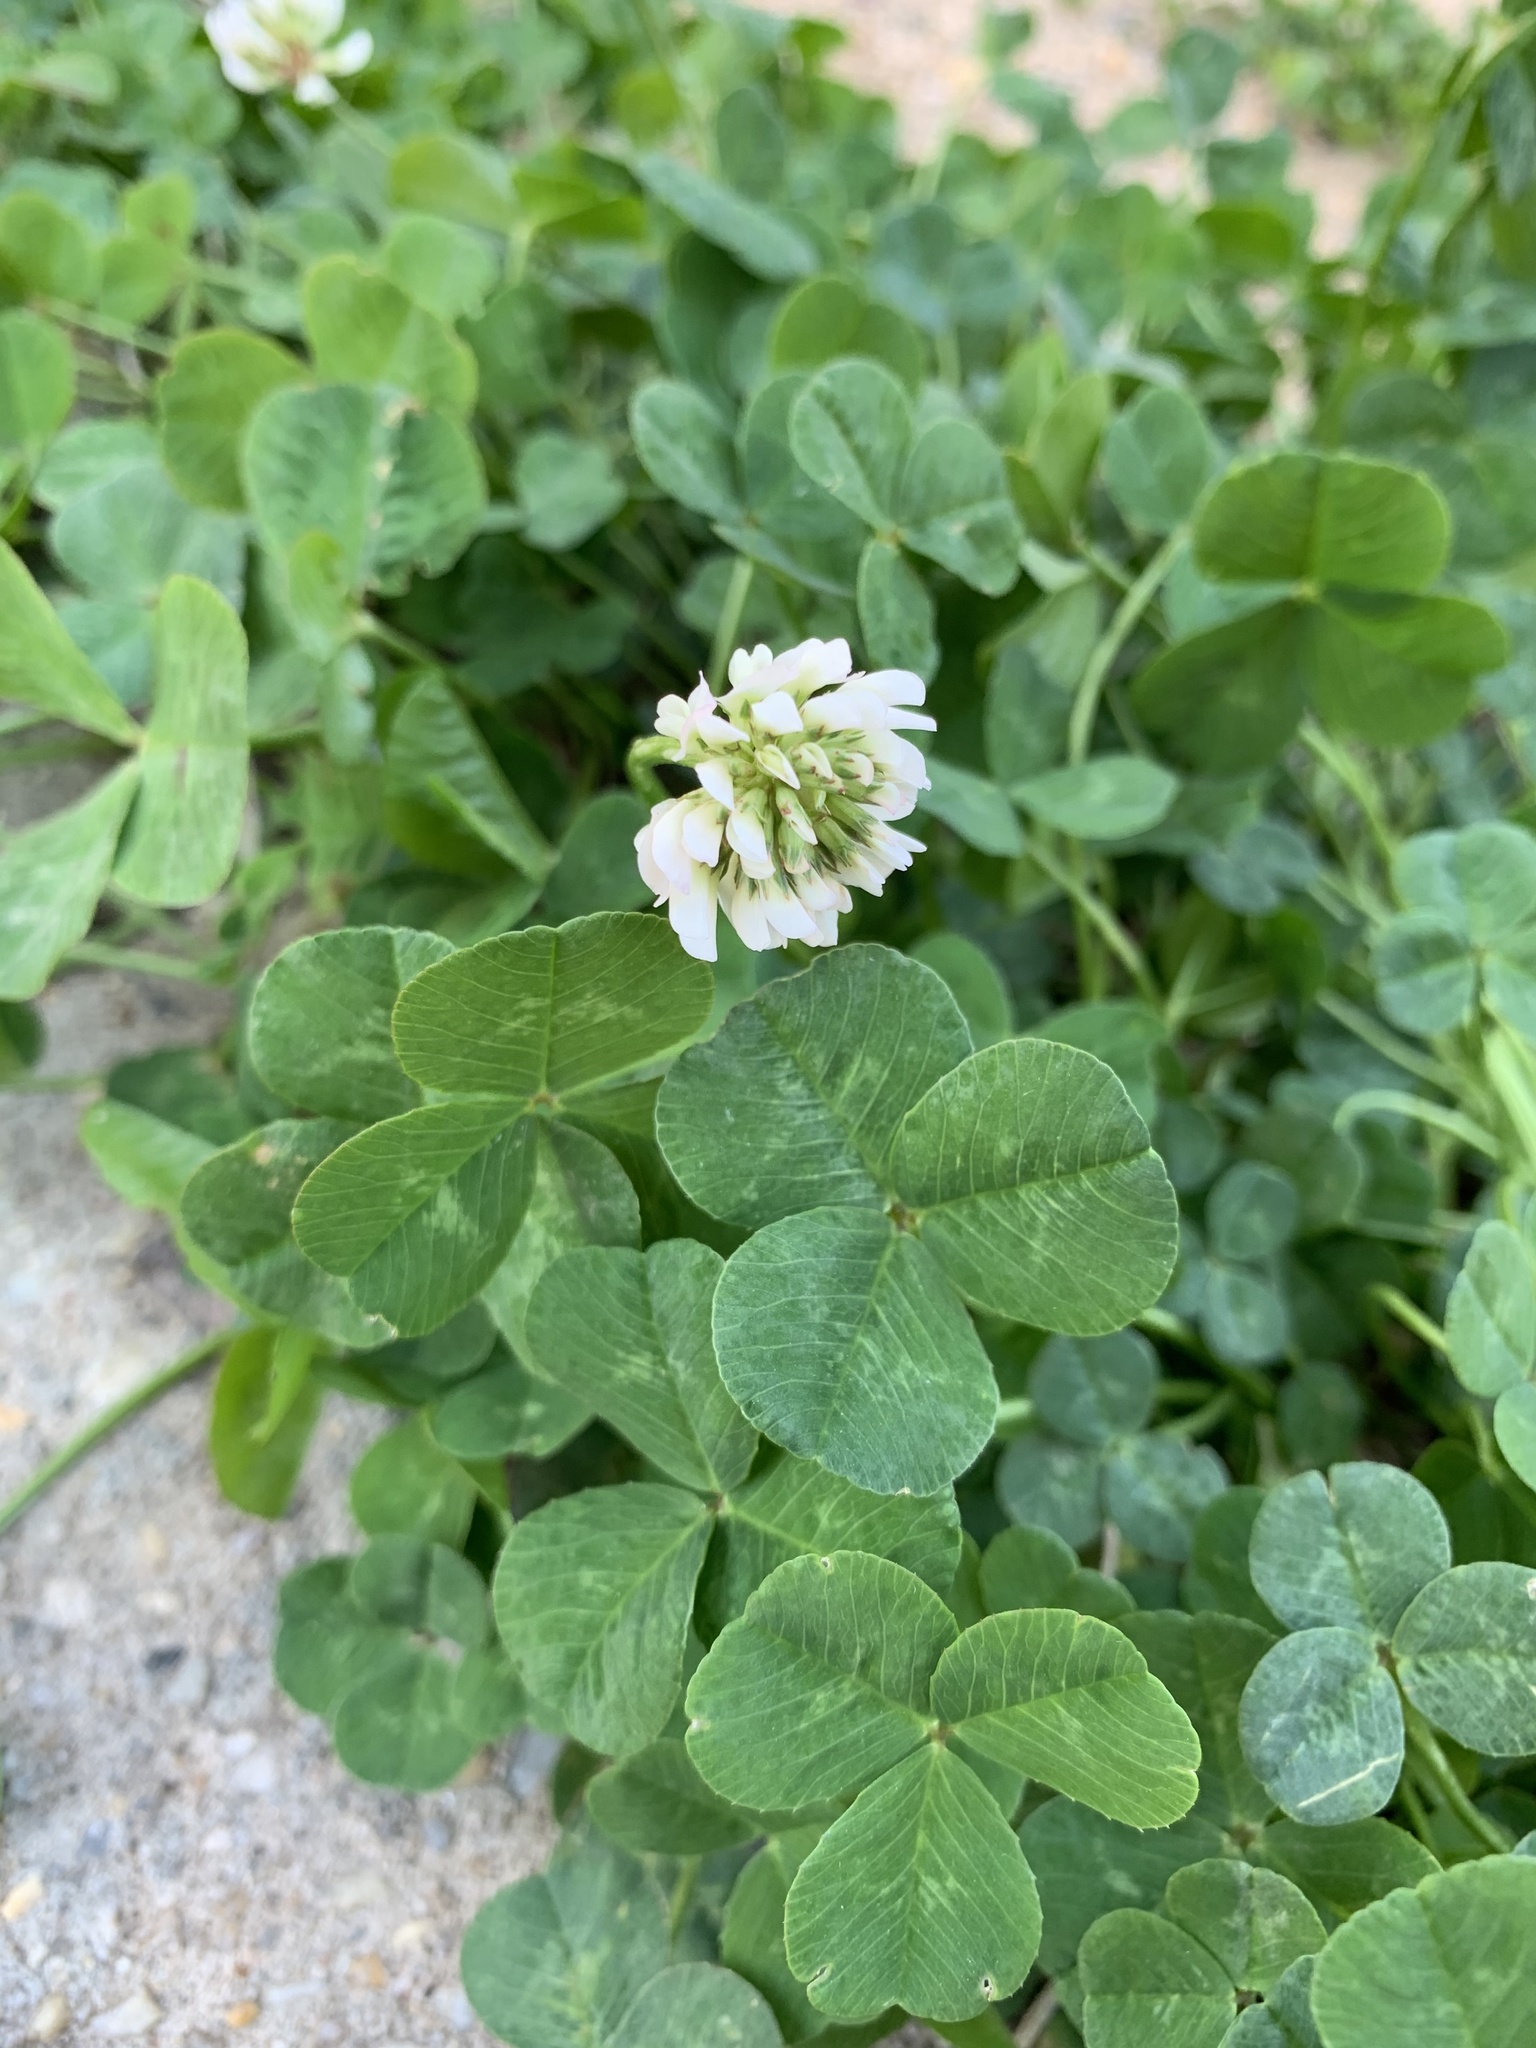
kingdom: Plantae
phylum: Tracheophyta
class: Magnoliopsida
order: Fabales
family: Fabaceae
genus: Trifolium
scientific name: Trifolium repens
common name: White clover
